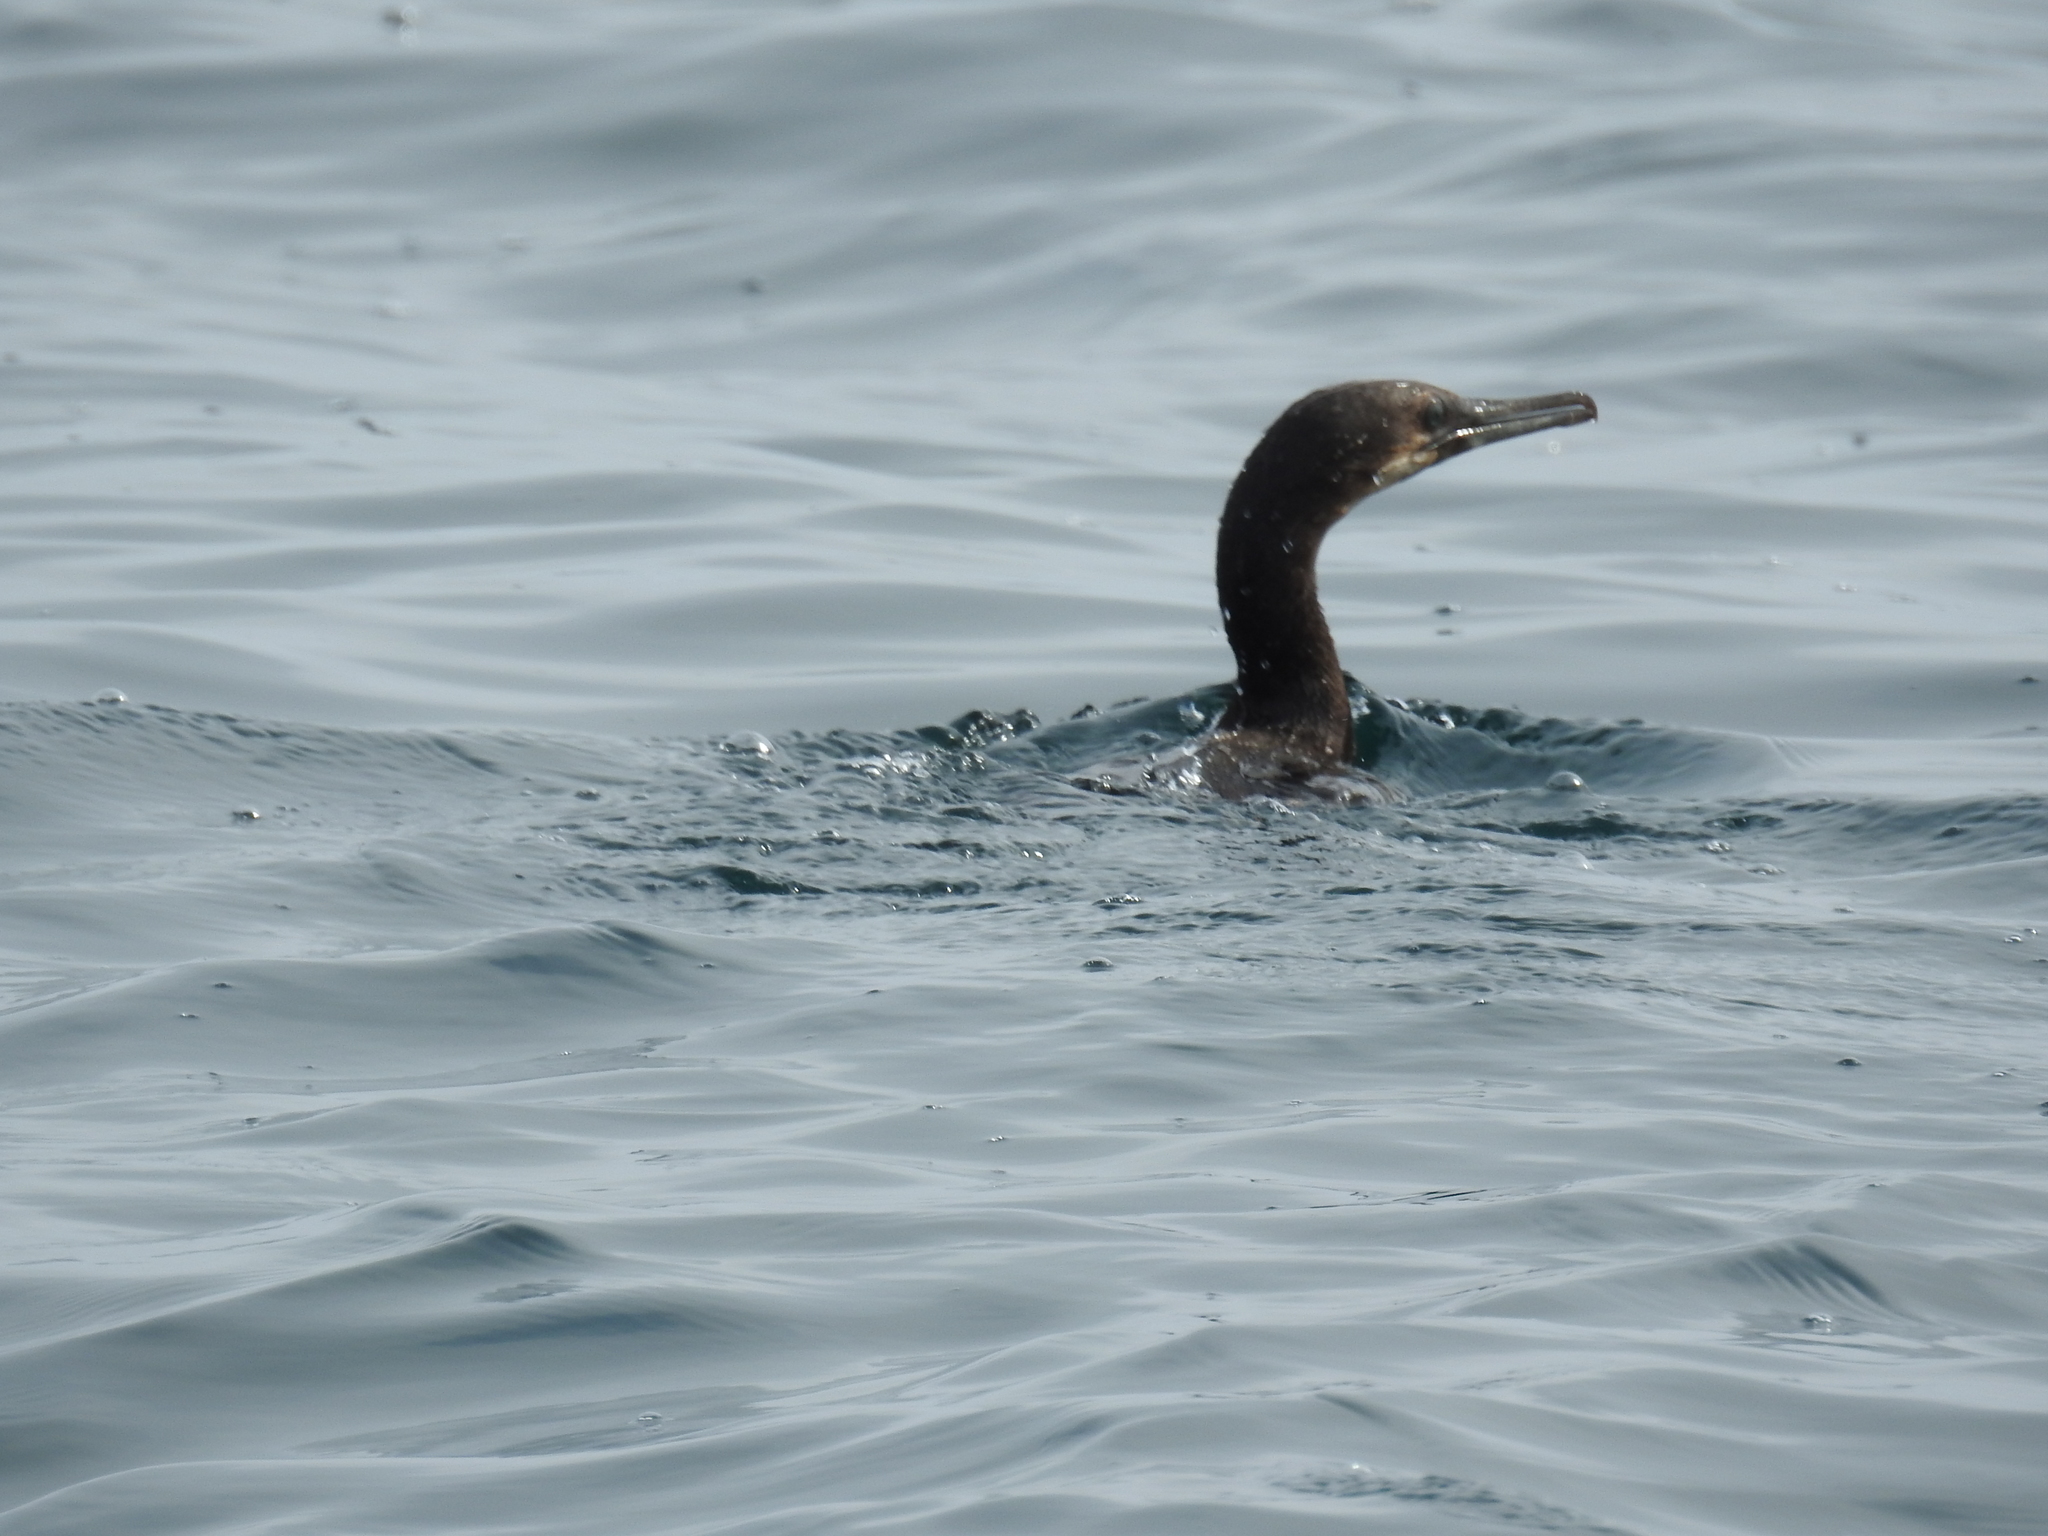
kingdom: Animalia
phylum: Chordata
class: Aves
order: Suliformes
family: Phalacrocoracidae
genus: Urile
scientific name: Urile penicillatus
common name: Brandt's cormorant
